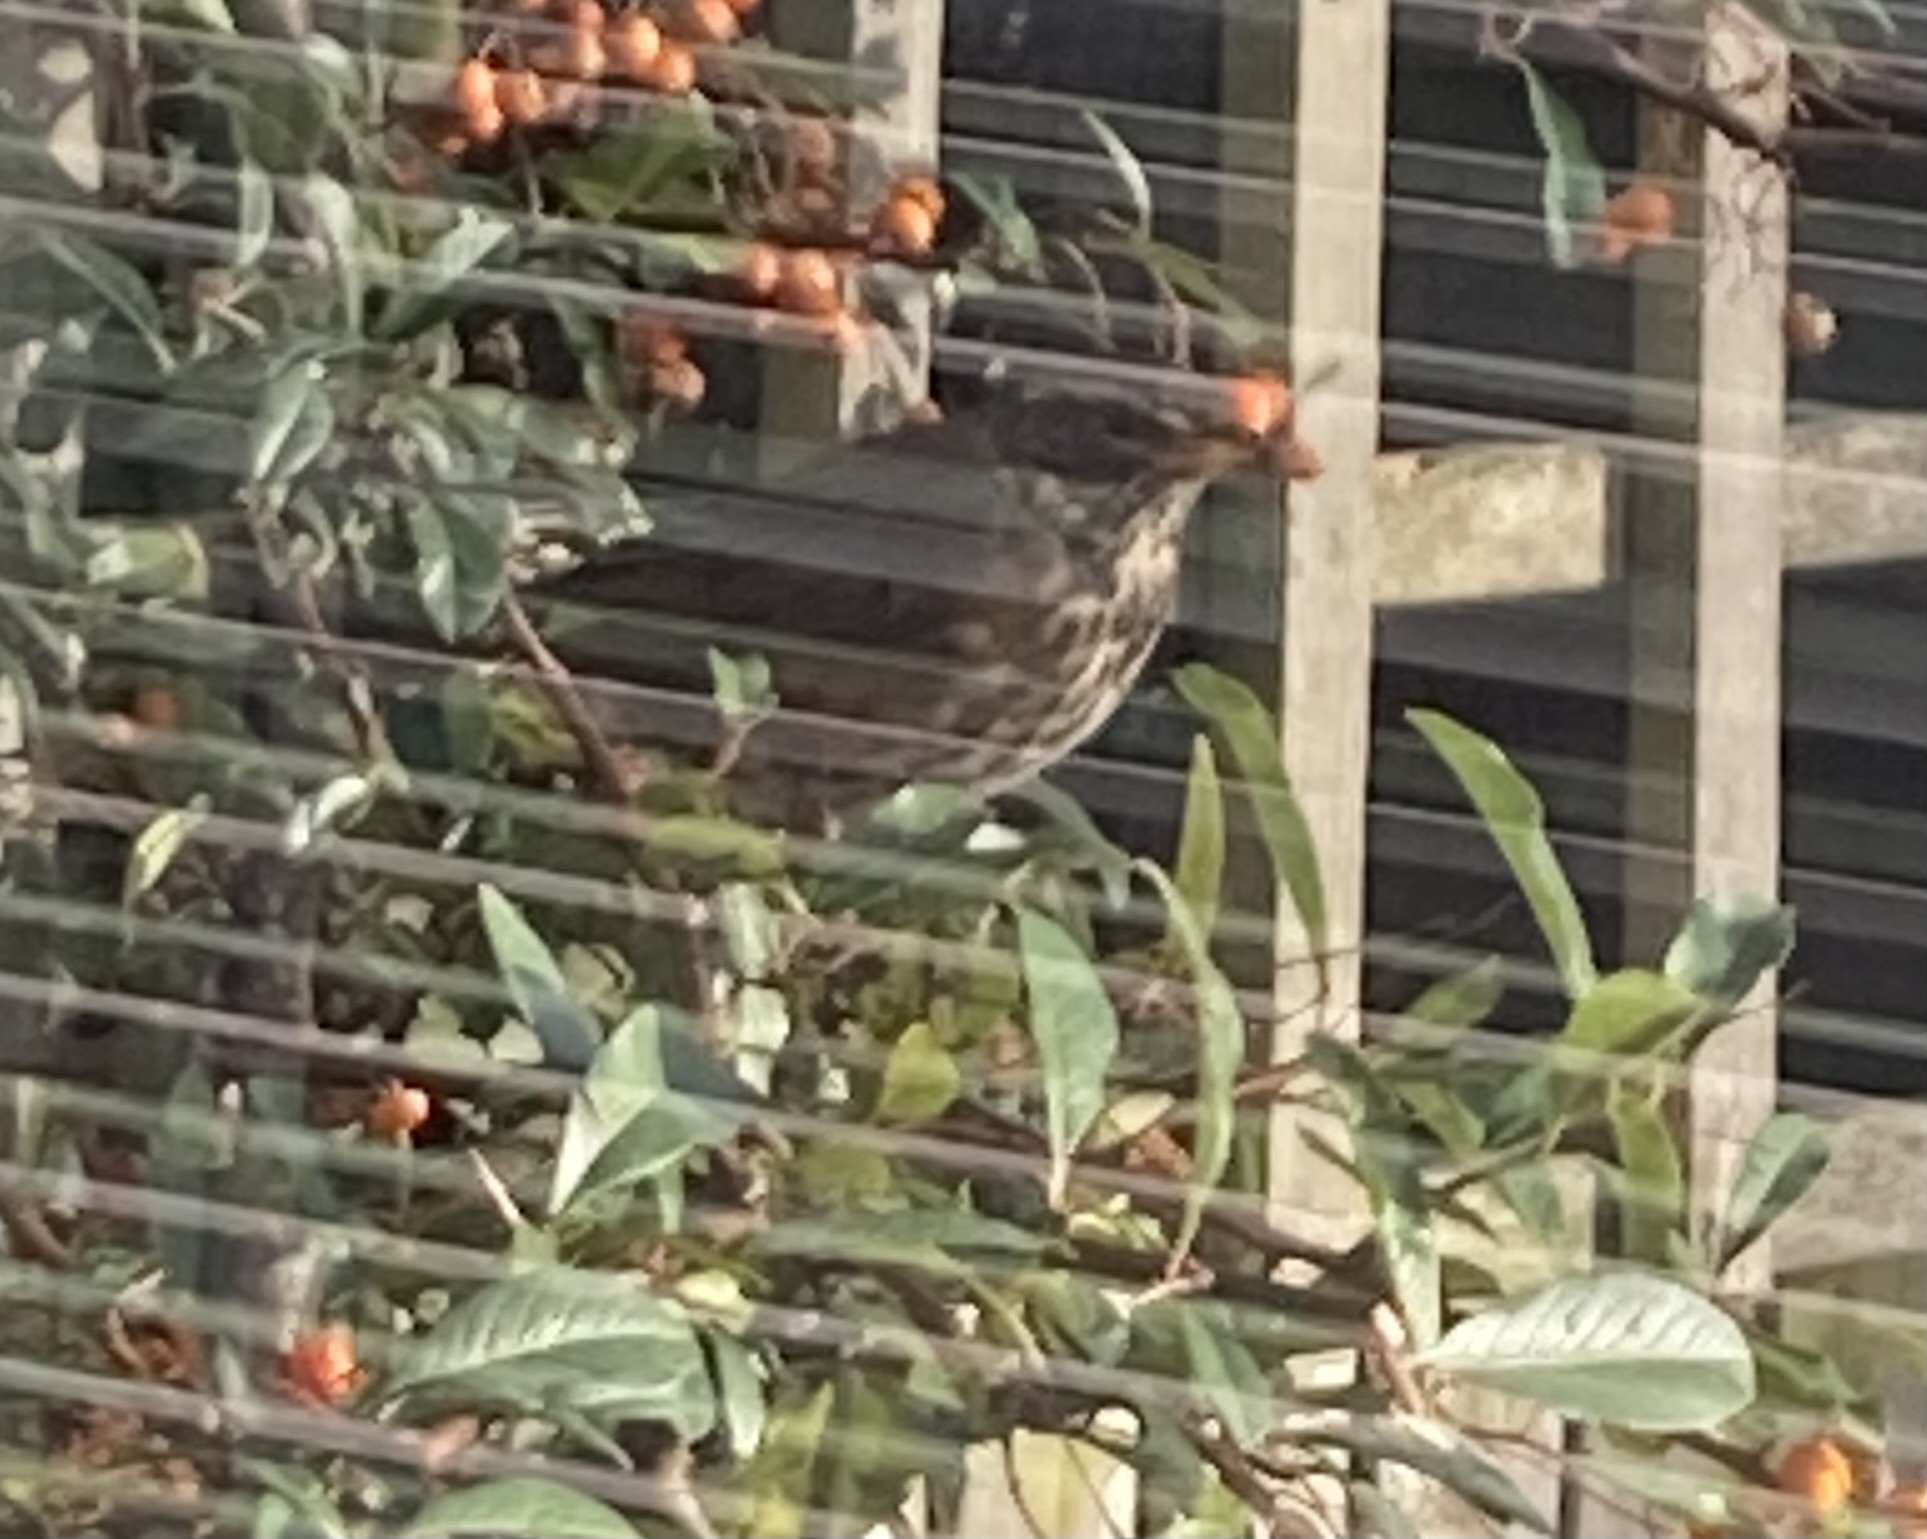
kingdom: Animalia
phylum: Chordata
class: Aves
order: Passeriformes
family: Turdidae
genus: Turdus
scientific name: Turdus iliacus
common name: Redwing
